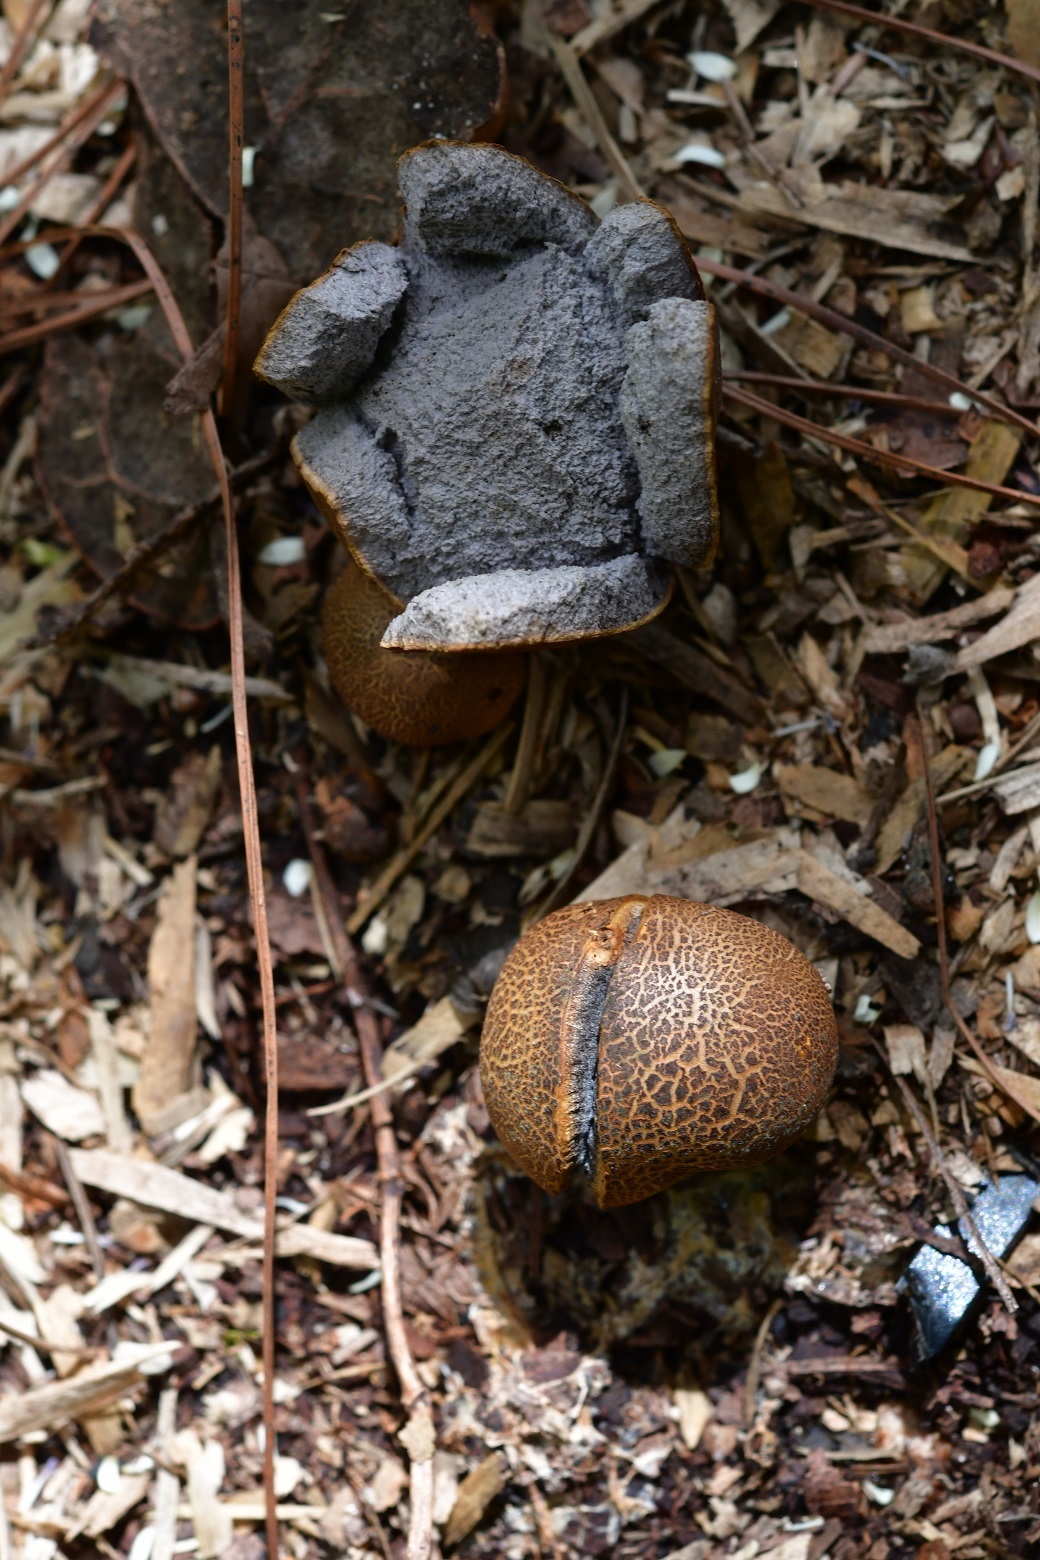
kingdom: Fungi
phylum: Basidiomycota
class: Agaricomycetes
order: Boletales
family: Sclerodermataceae
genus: Scleroderma
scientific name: Scleroderma areolatum
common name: Leopard earthball
